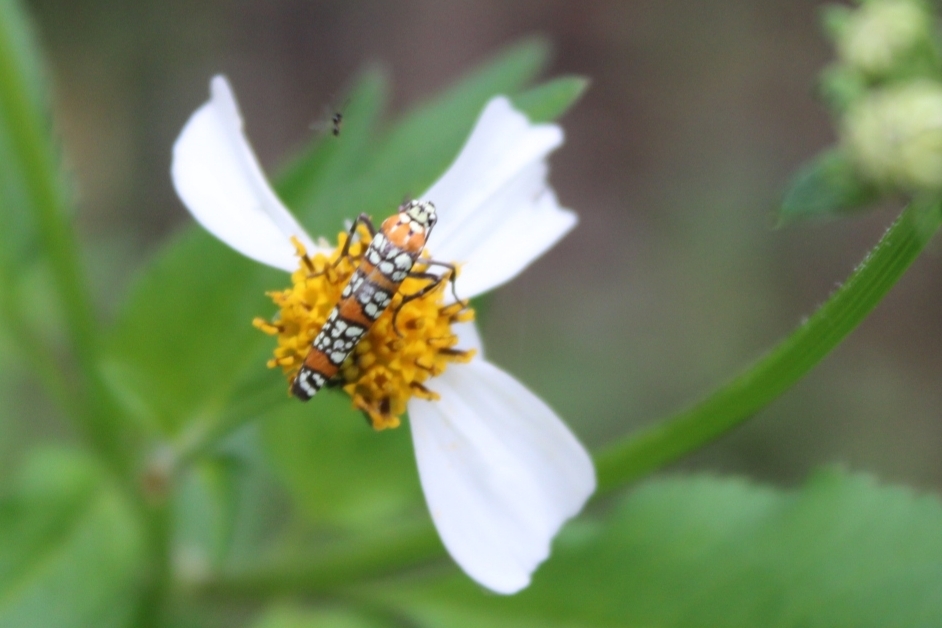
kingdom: Animalia
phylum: Arthropoda
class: Insecta
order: Lepidoptera
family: Attevidae
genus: Atteva
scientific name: Atteva punctella
